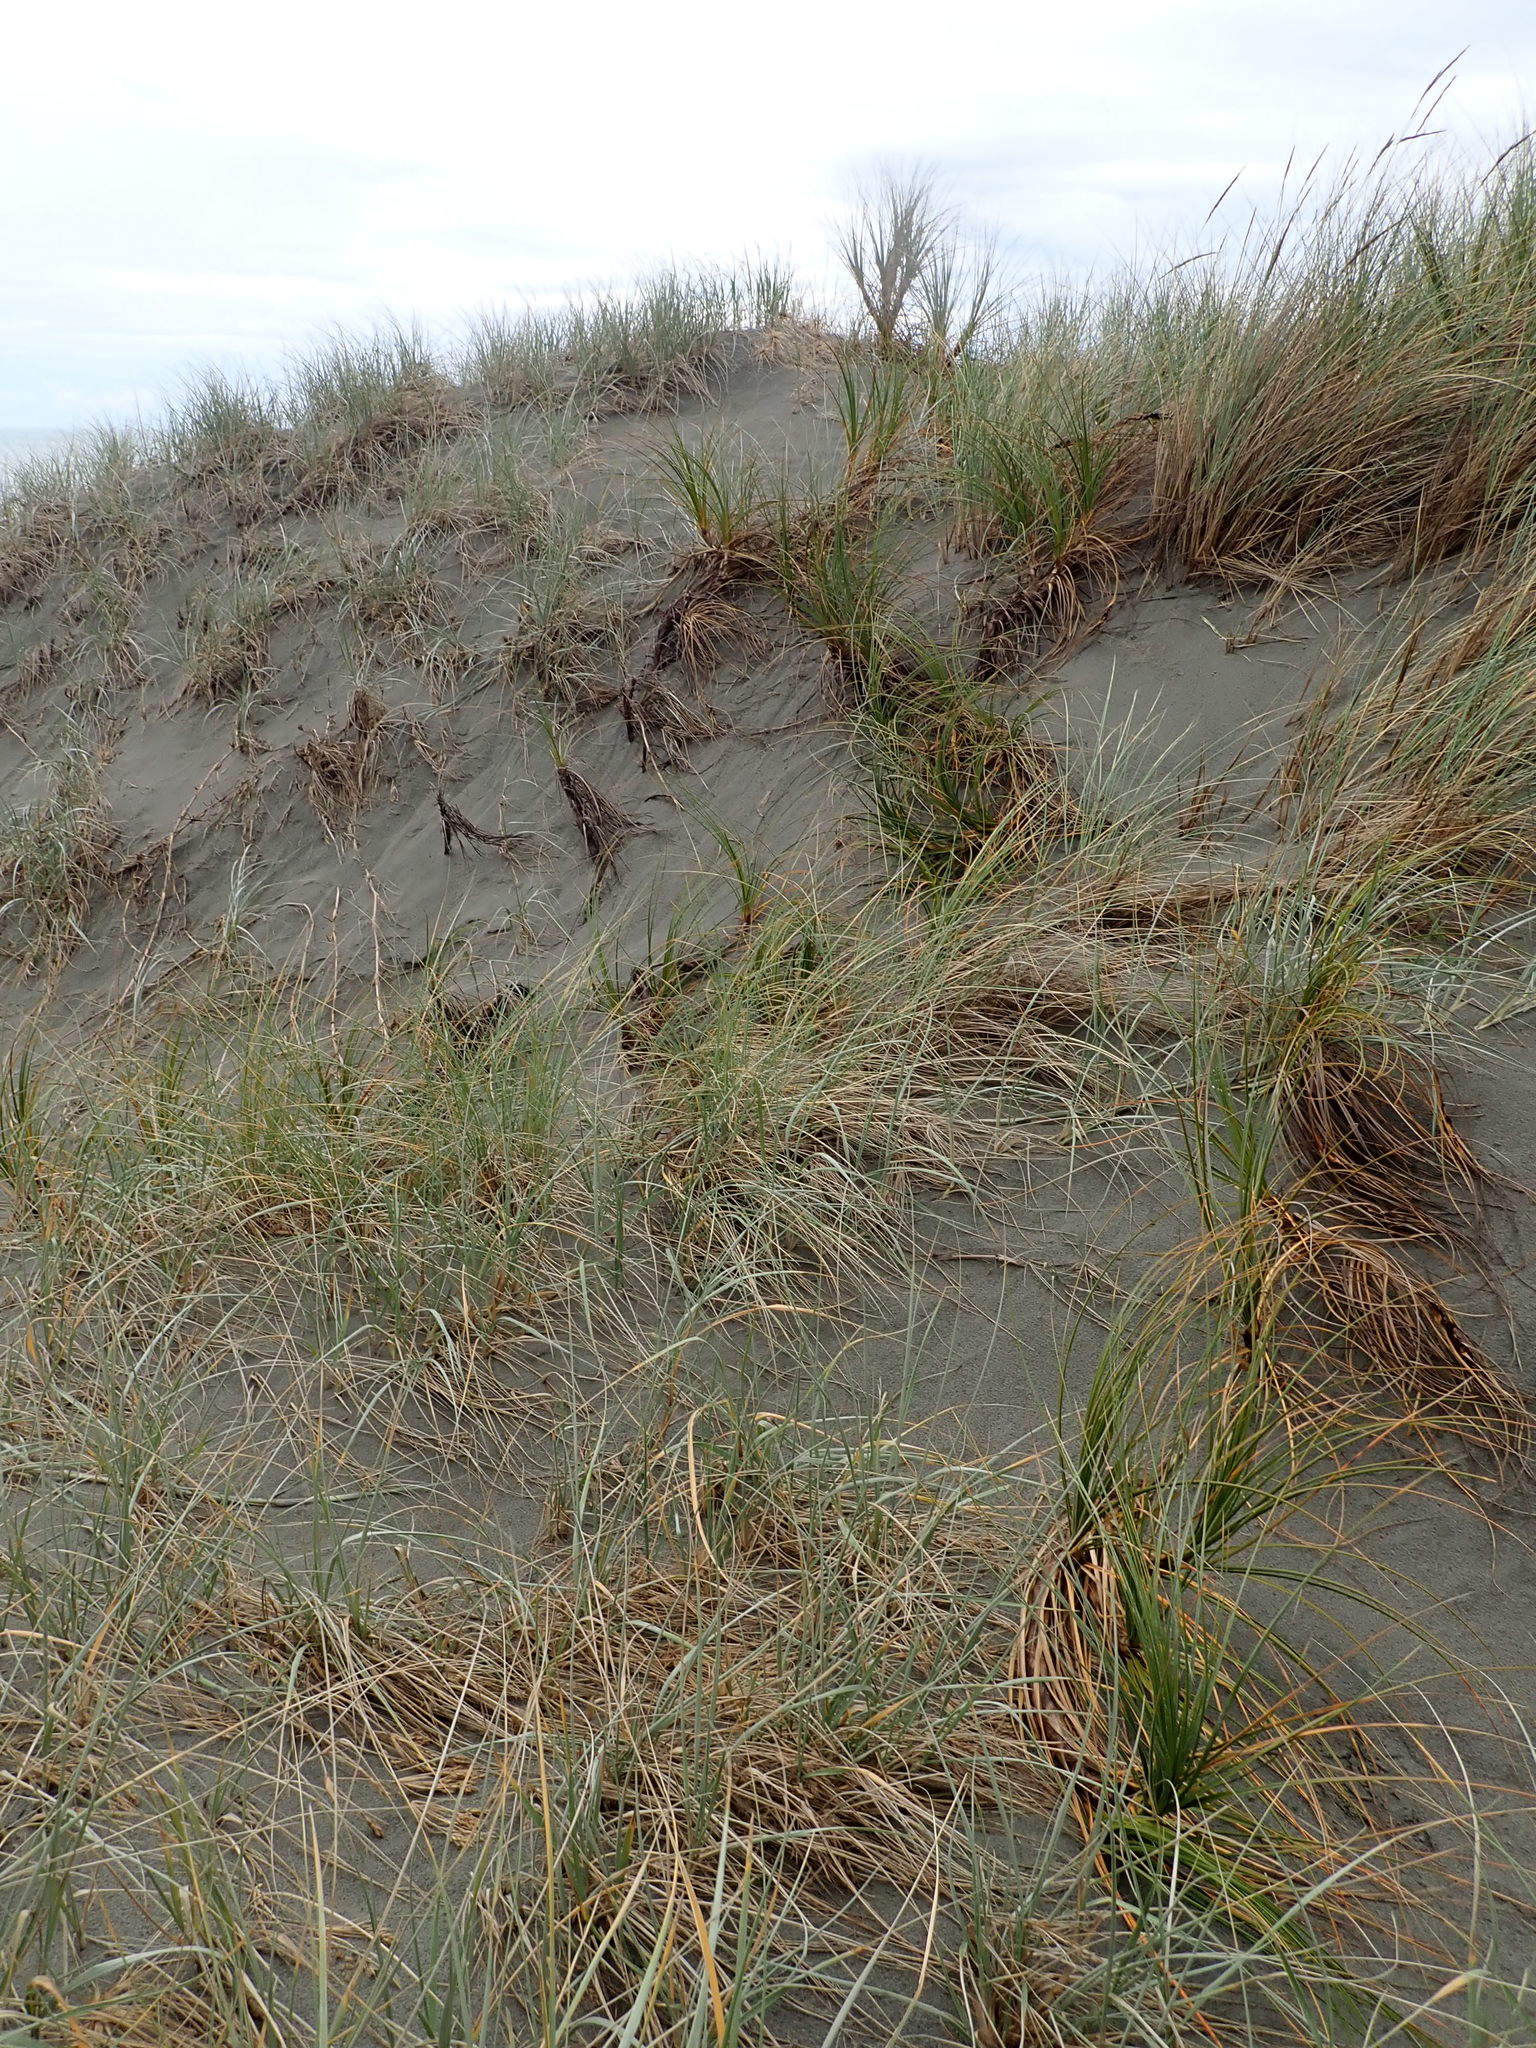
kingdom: Plantae
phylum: Tracheophyta
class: Liliopsida
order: Poales
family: Cyperaceae
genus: Ficinia
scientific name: Ficinia spiralis
